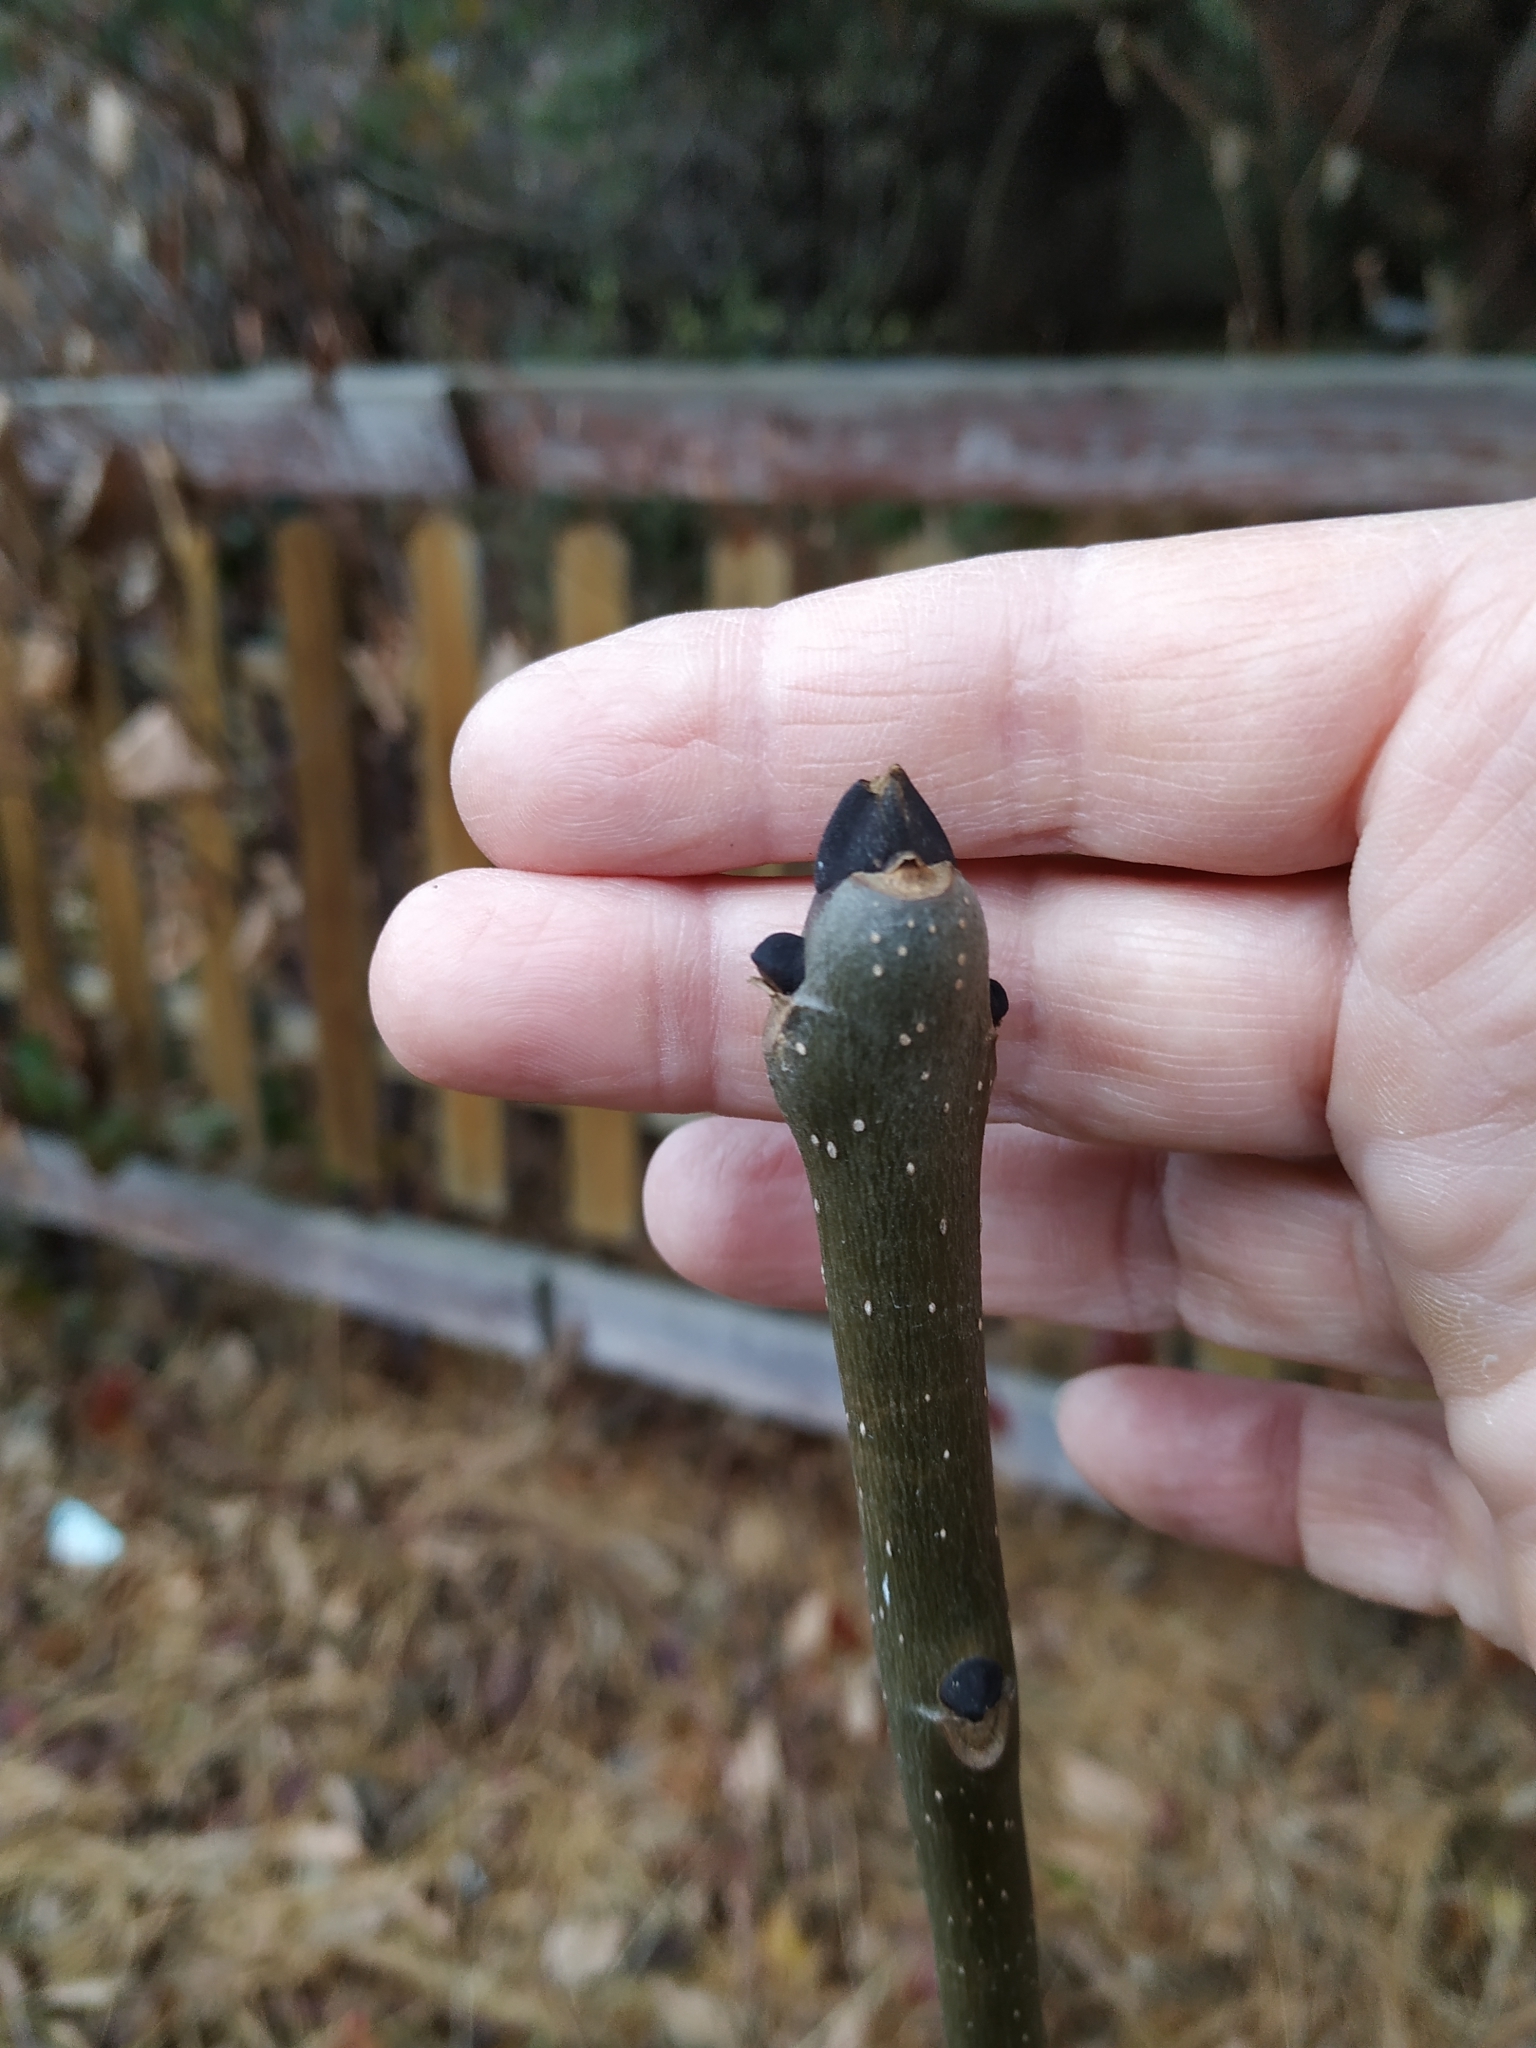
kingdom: Plantae
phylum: Tracheophyta
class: Magnoliopsida
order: Lamiales
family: Oleaceae
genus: Fraxinus
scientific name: Fraxinus excelsior
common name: European ash
